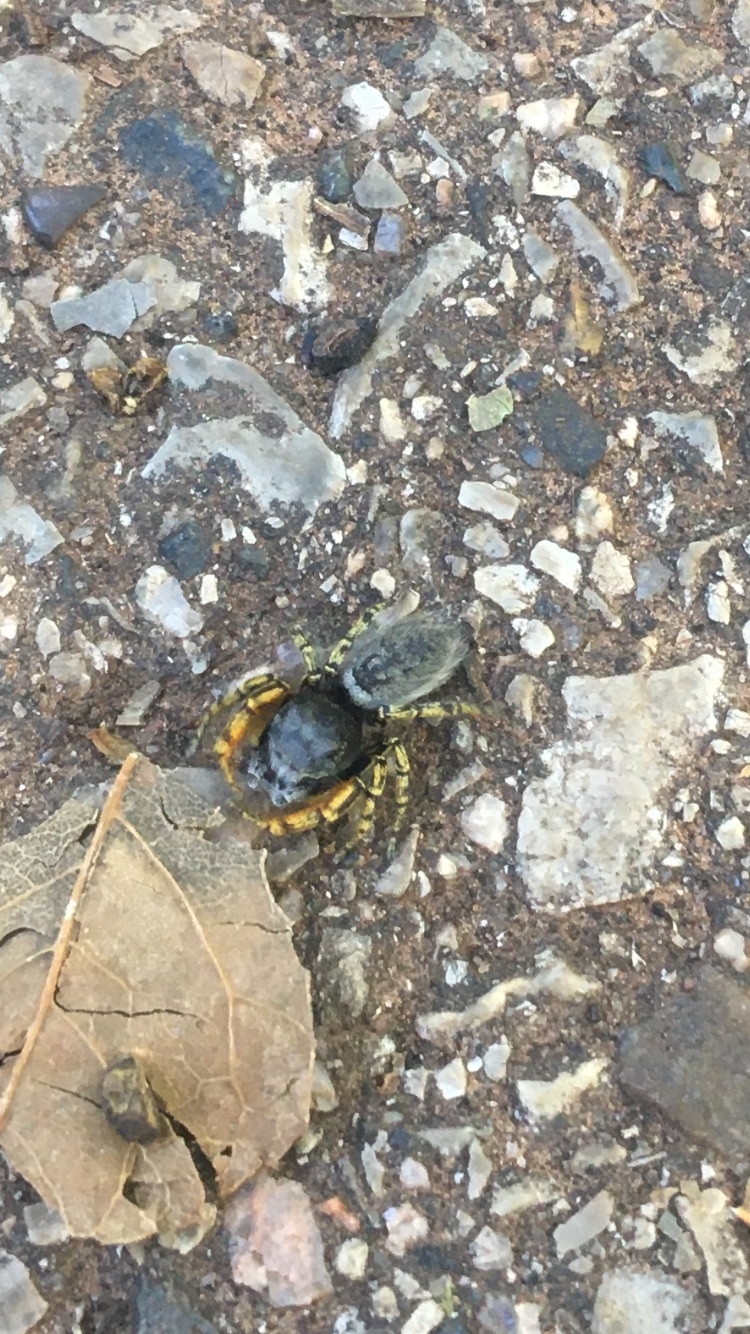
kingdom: Animalia
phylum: Arthropoda
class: Arachnida
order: Araneae
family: Salticidae
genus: Phidippus
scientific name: Phidippus mystaceus
